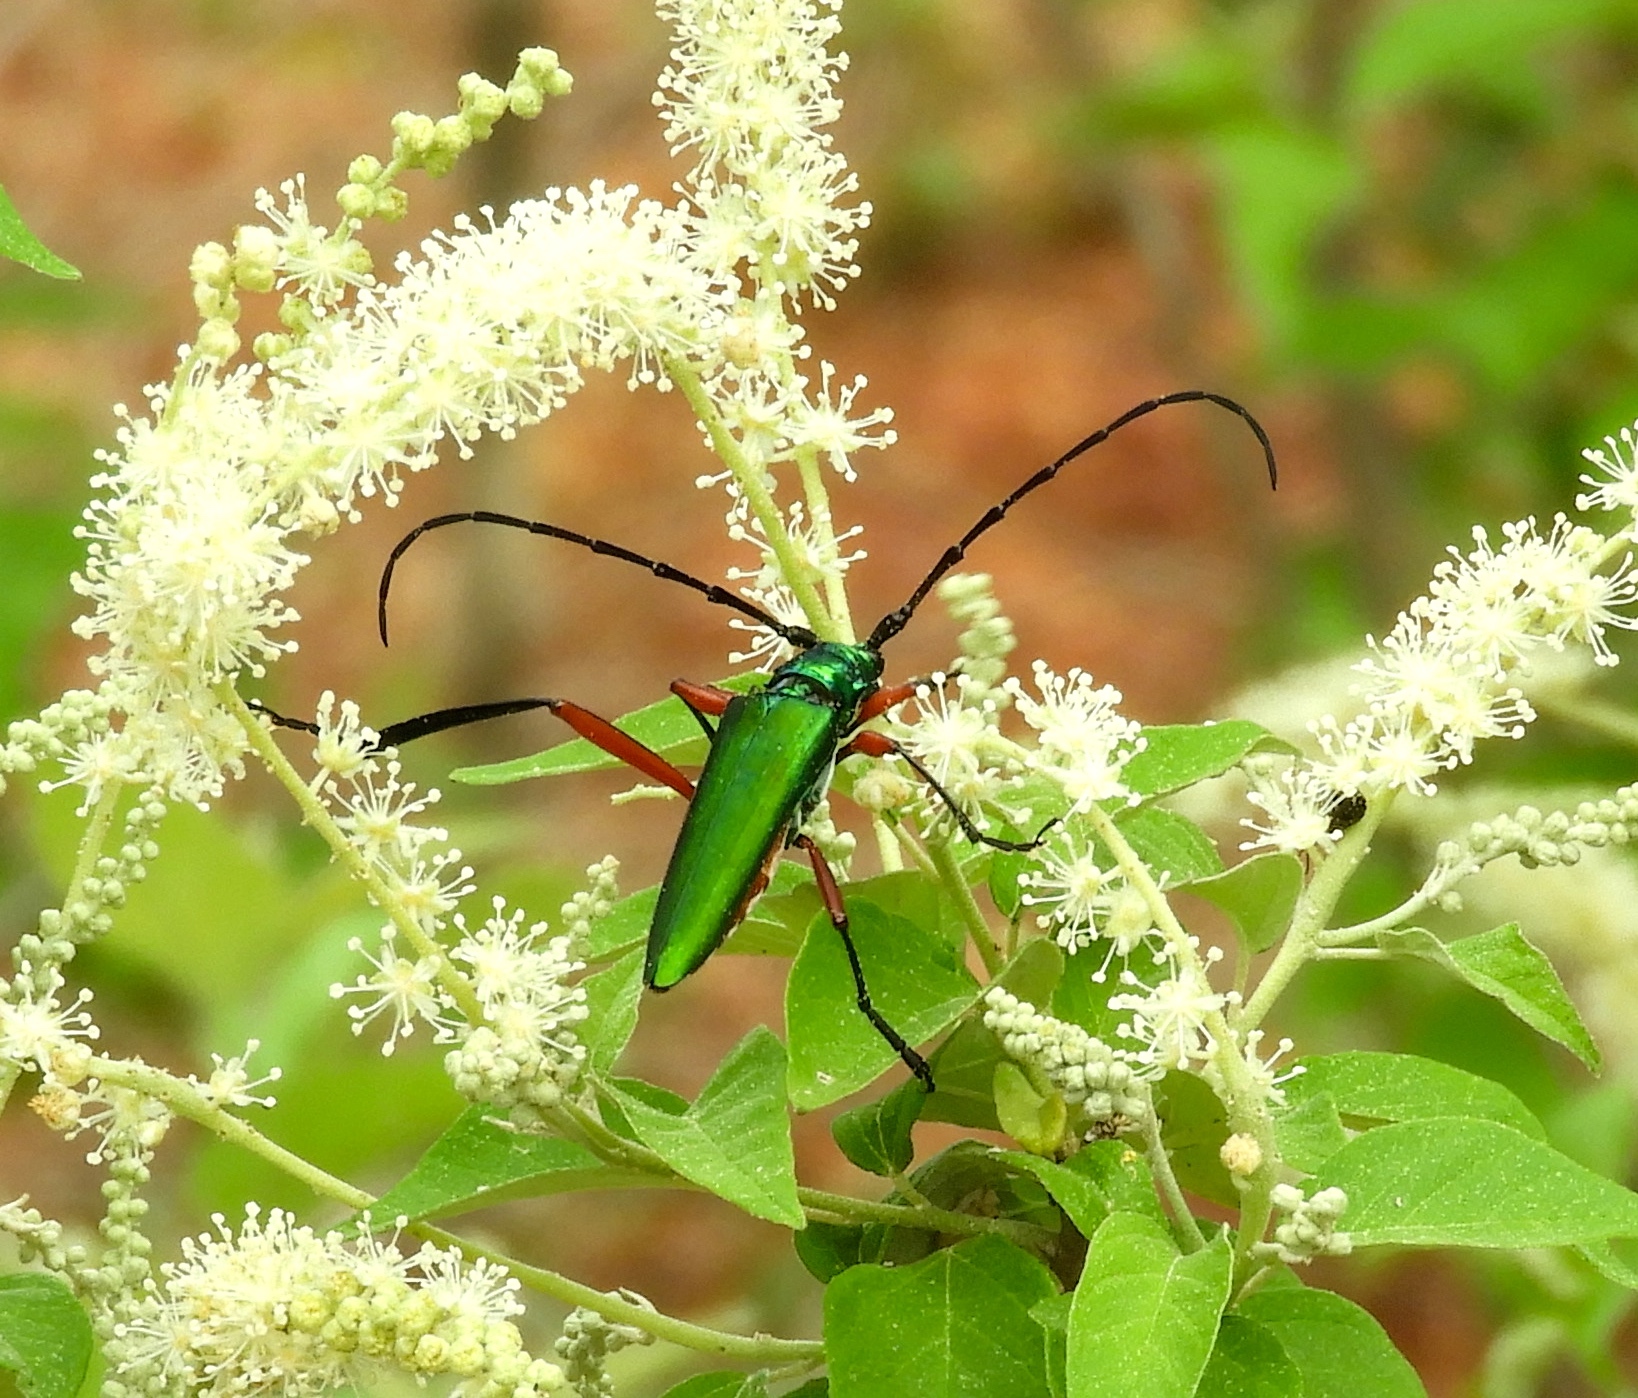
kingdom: Animalia
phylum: Arthropoda
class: Insecta
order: Coleoptera
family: Cerambycidae
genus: Plinthocoelium
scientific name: Plinthocoelium chilensis
